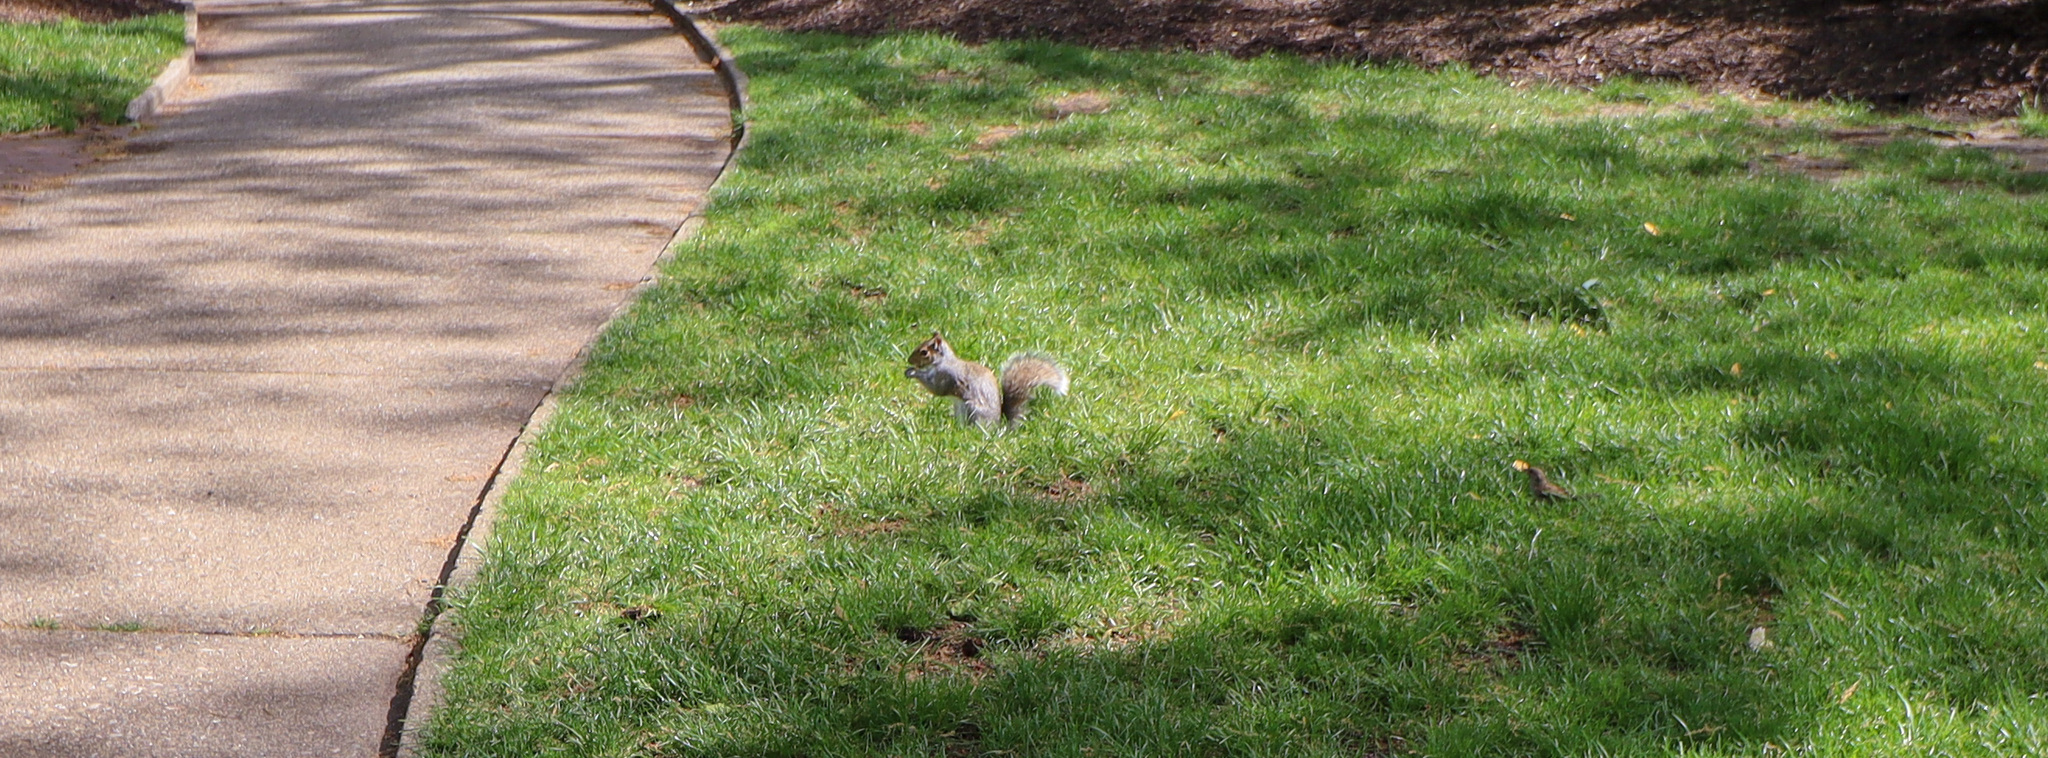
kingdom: Animalia
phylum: Chordata
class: Mammalia
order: Rodentia
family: Sciuridae
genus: Sciurus
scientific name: Sciurus carolinensis
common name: Eastern gray squirrel
